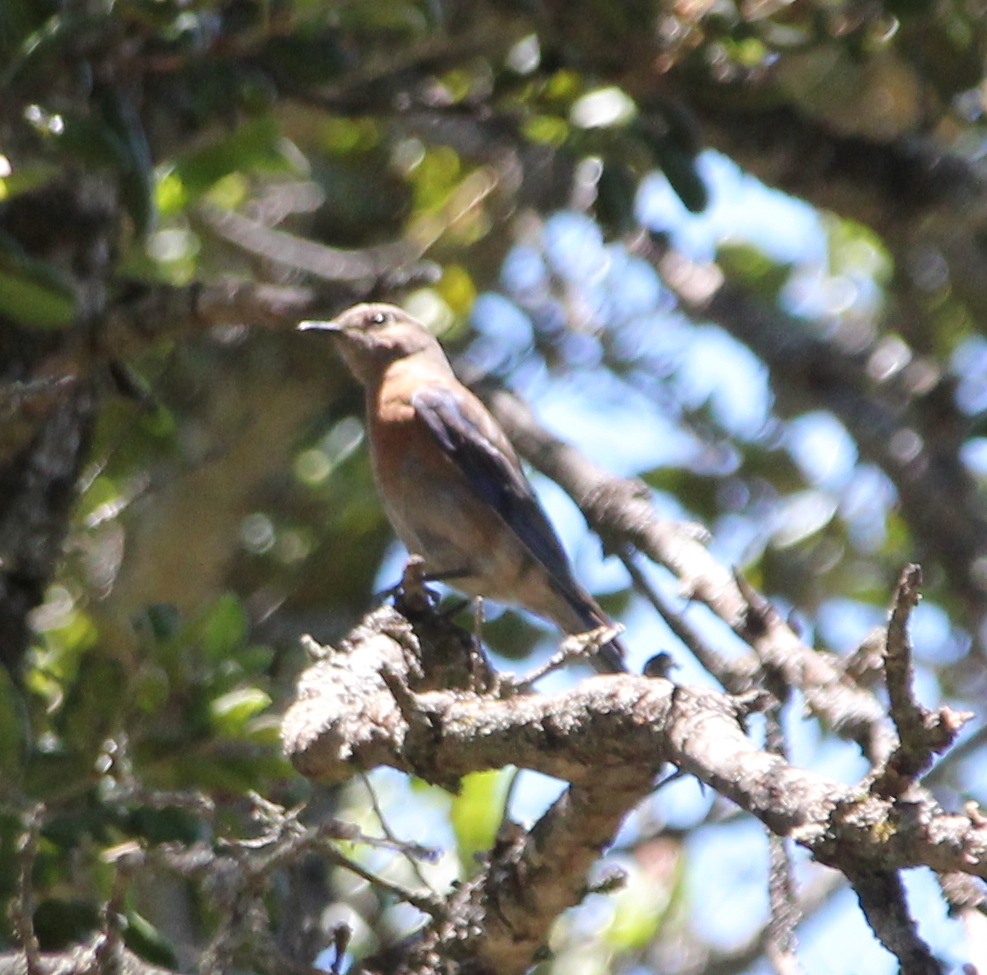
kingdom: Animalia
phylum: Chordata
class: Aves
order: Passeriformes
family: Turdidae
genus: Sialia
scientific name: Sialia mexicana
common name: Western bluebird
